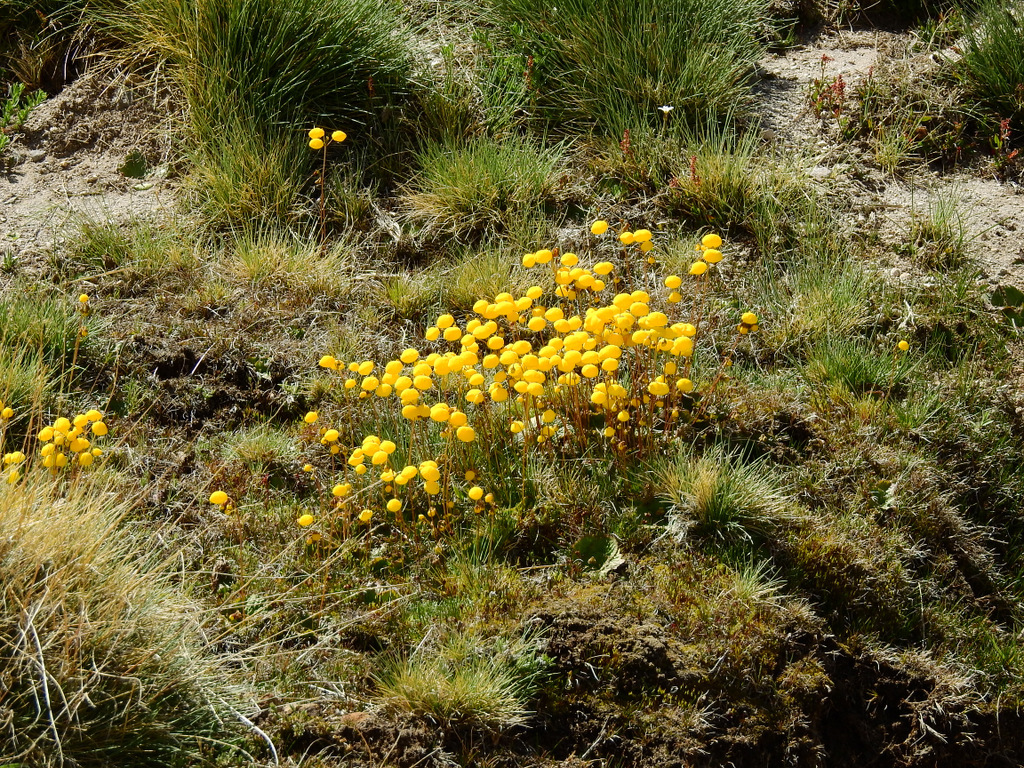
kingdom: Plantae
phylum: Tracheophyta
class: Magnoliopsida
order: Lamiales
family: Calceolariaceae
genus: Calceolaria
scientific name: Calceolaria filicaulis
